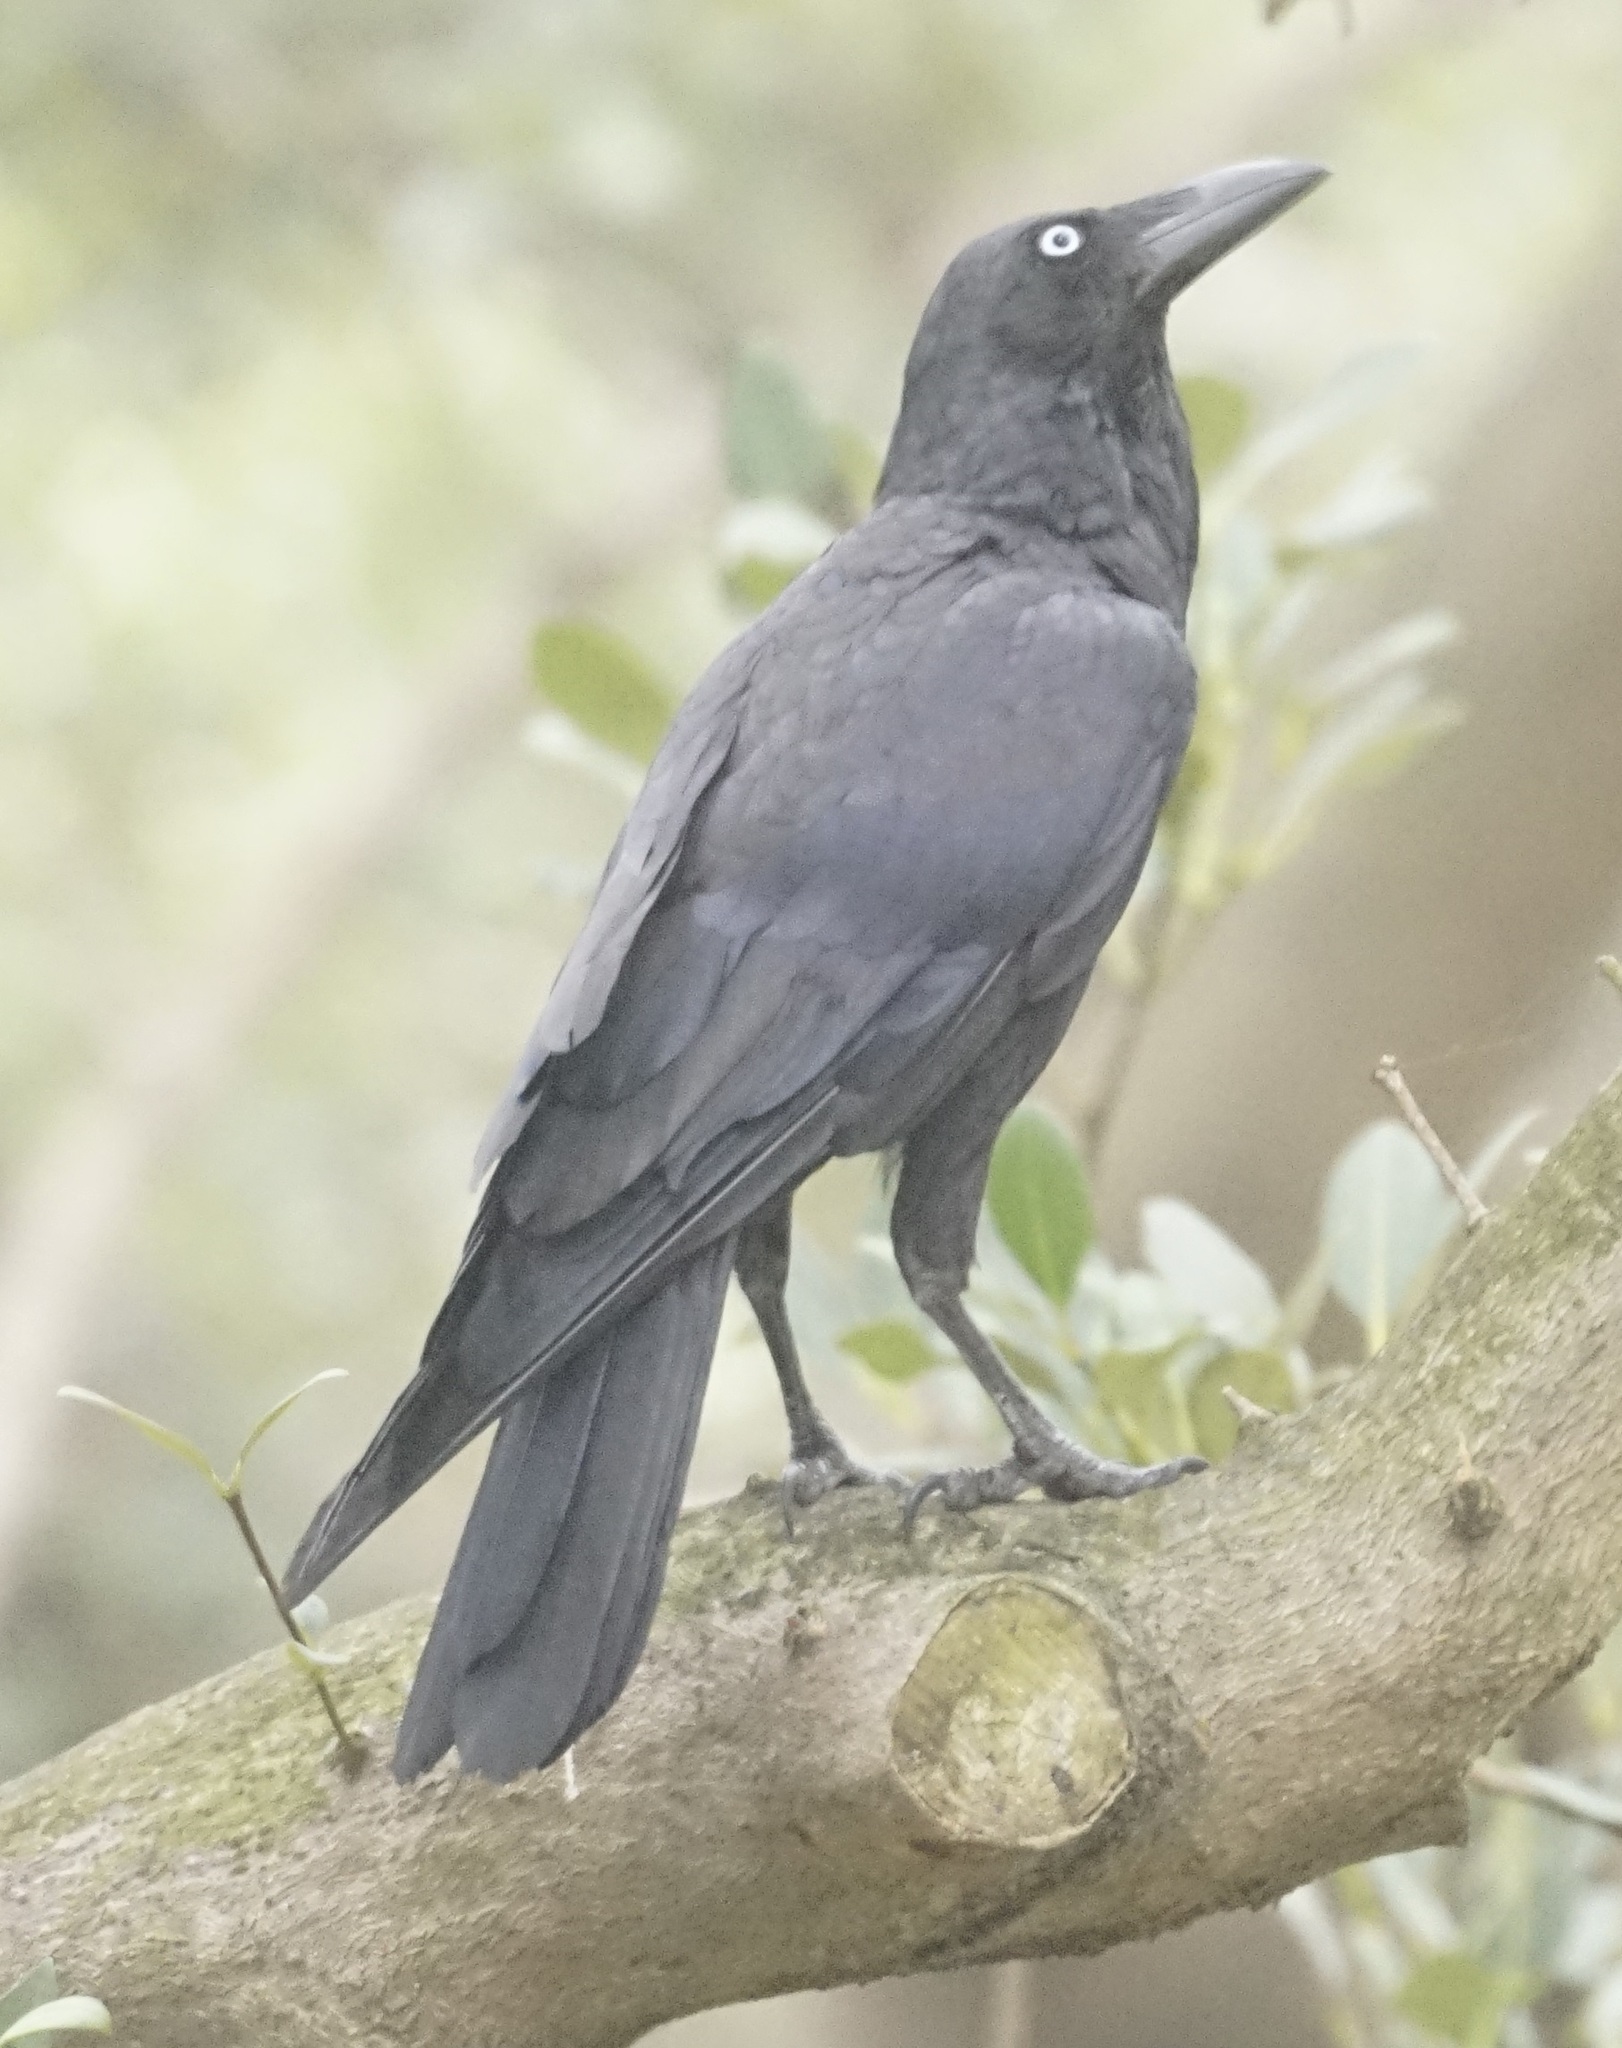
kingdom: Animalia
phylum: Chordata
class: Aves
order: Passeriformes
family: Corvidae
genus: Corvus
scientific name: Corvus coronoides
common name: Australian raven
